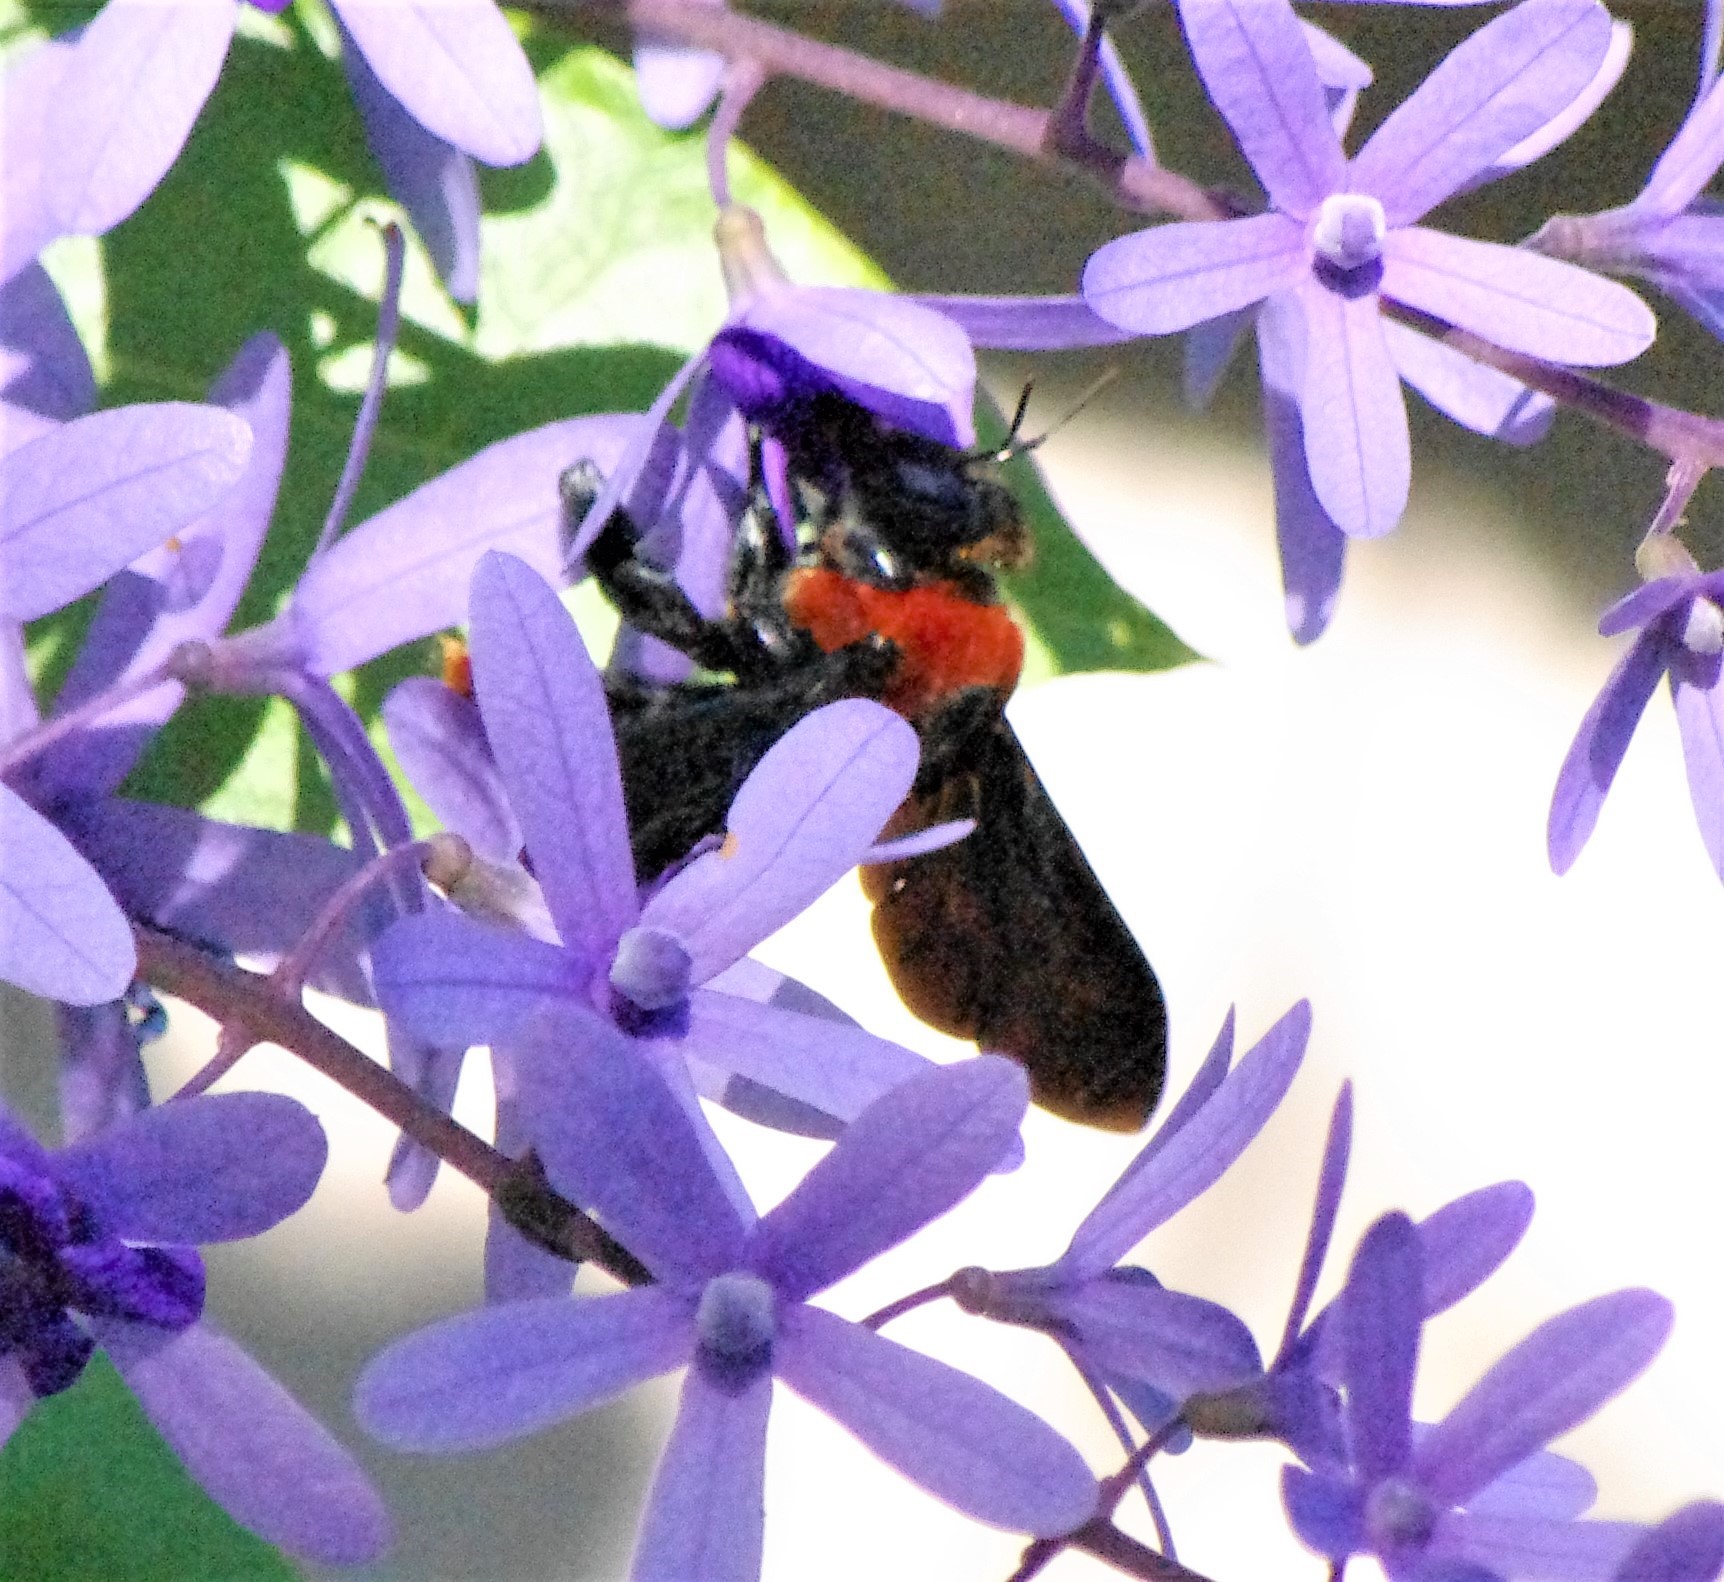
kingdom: Animalia
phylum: Arthropoda
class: Insecta
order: Hymenoptera
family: Apidae
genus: Xylocopa
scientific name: Xylocopa flavorufa
